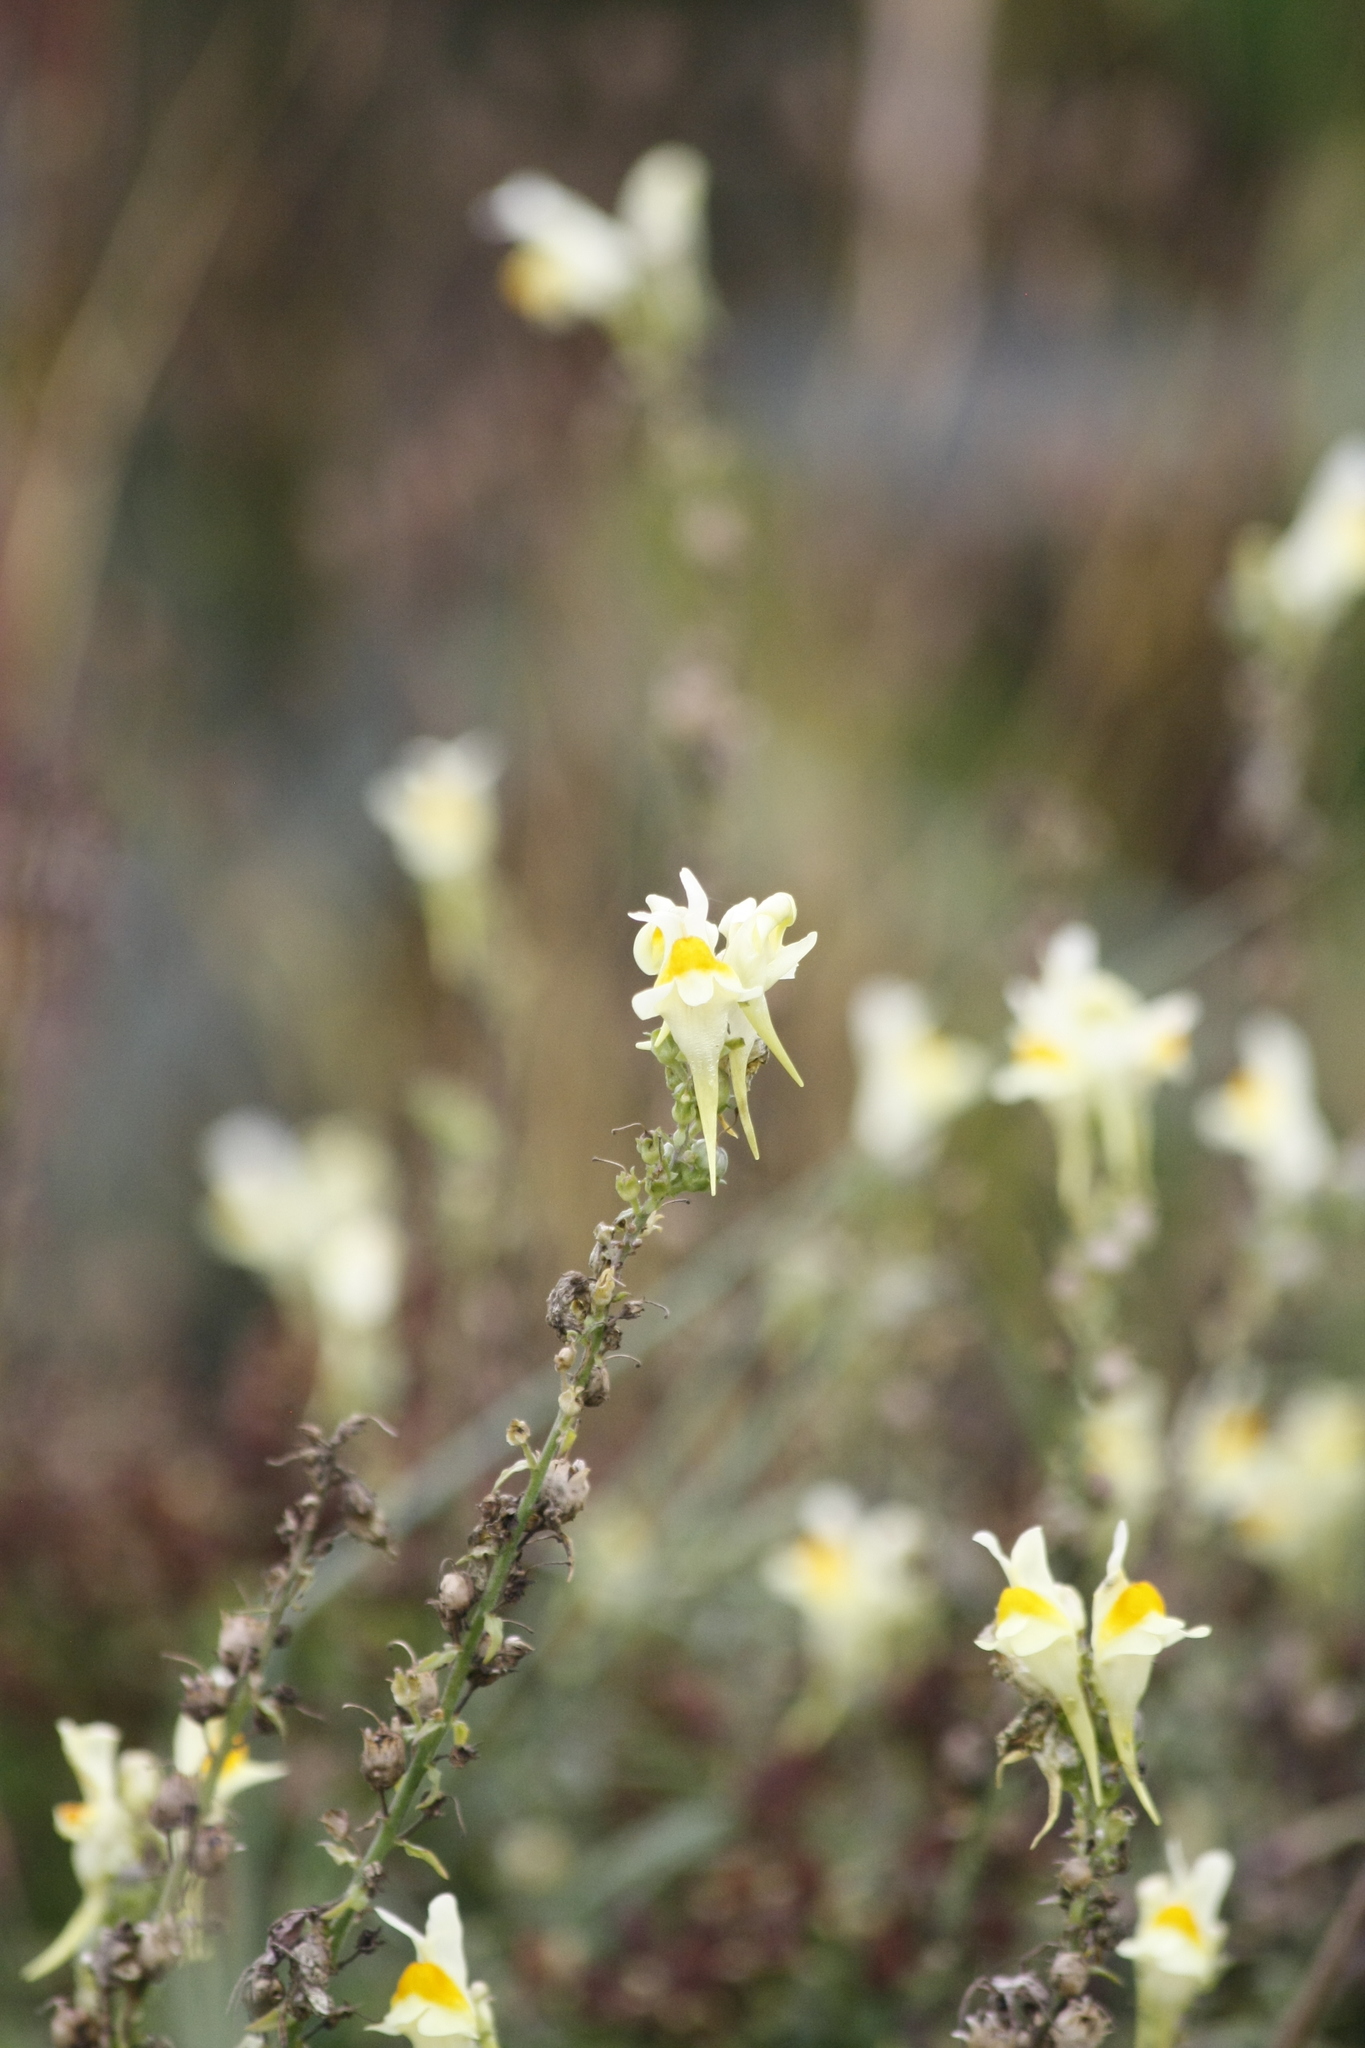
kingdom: Plantae
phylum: Tracheophyta
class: Magnoliopsida
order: Lamiales
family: Plantaginaceae
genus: Linaria
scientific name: Linaria vulgaris
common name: Butter and eggs
